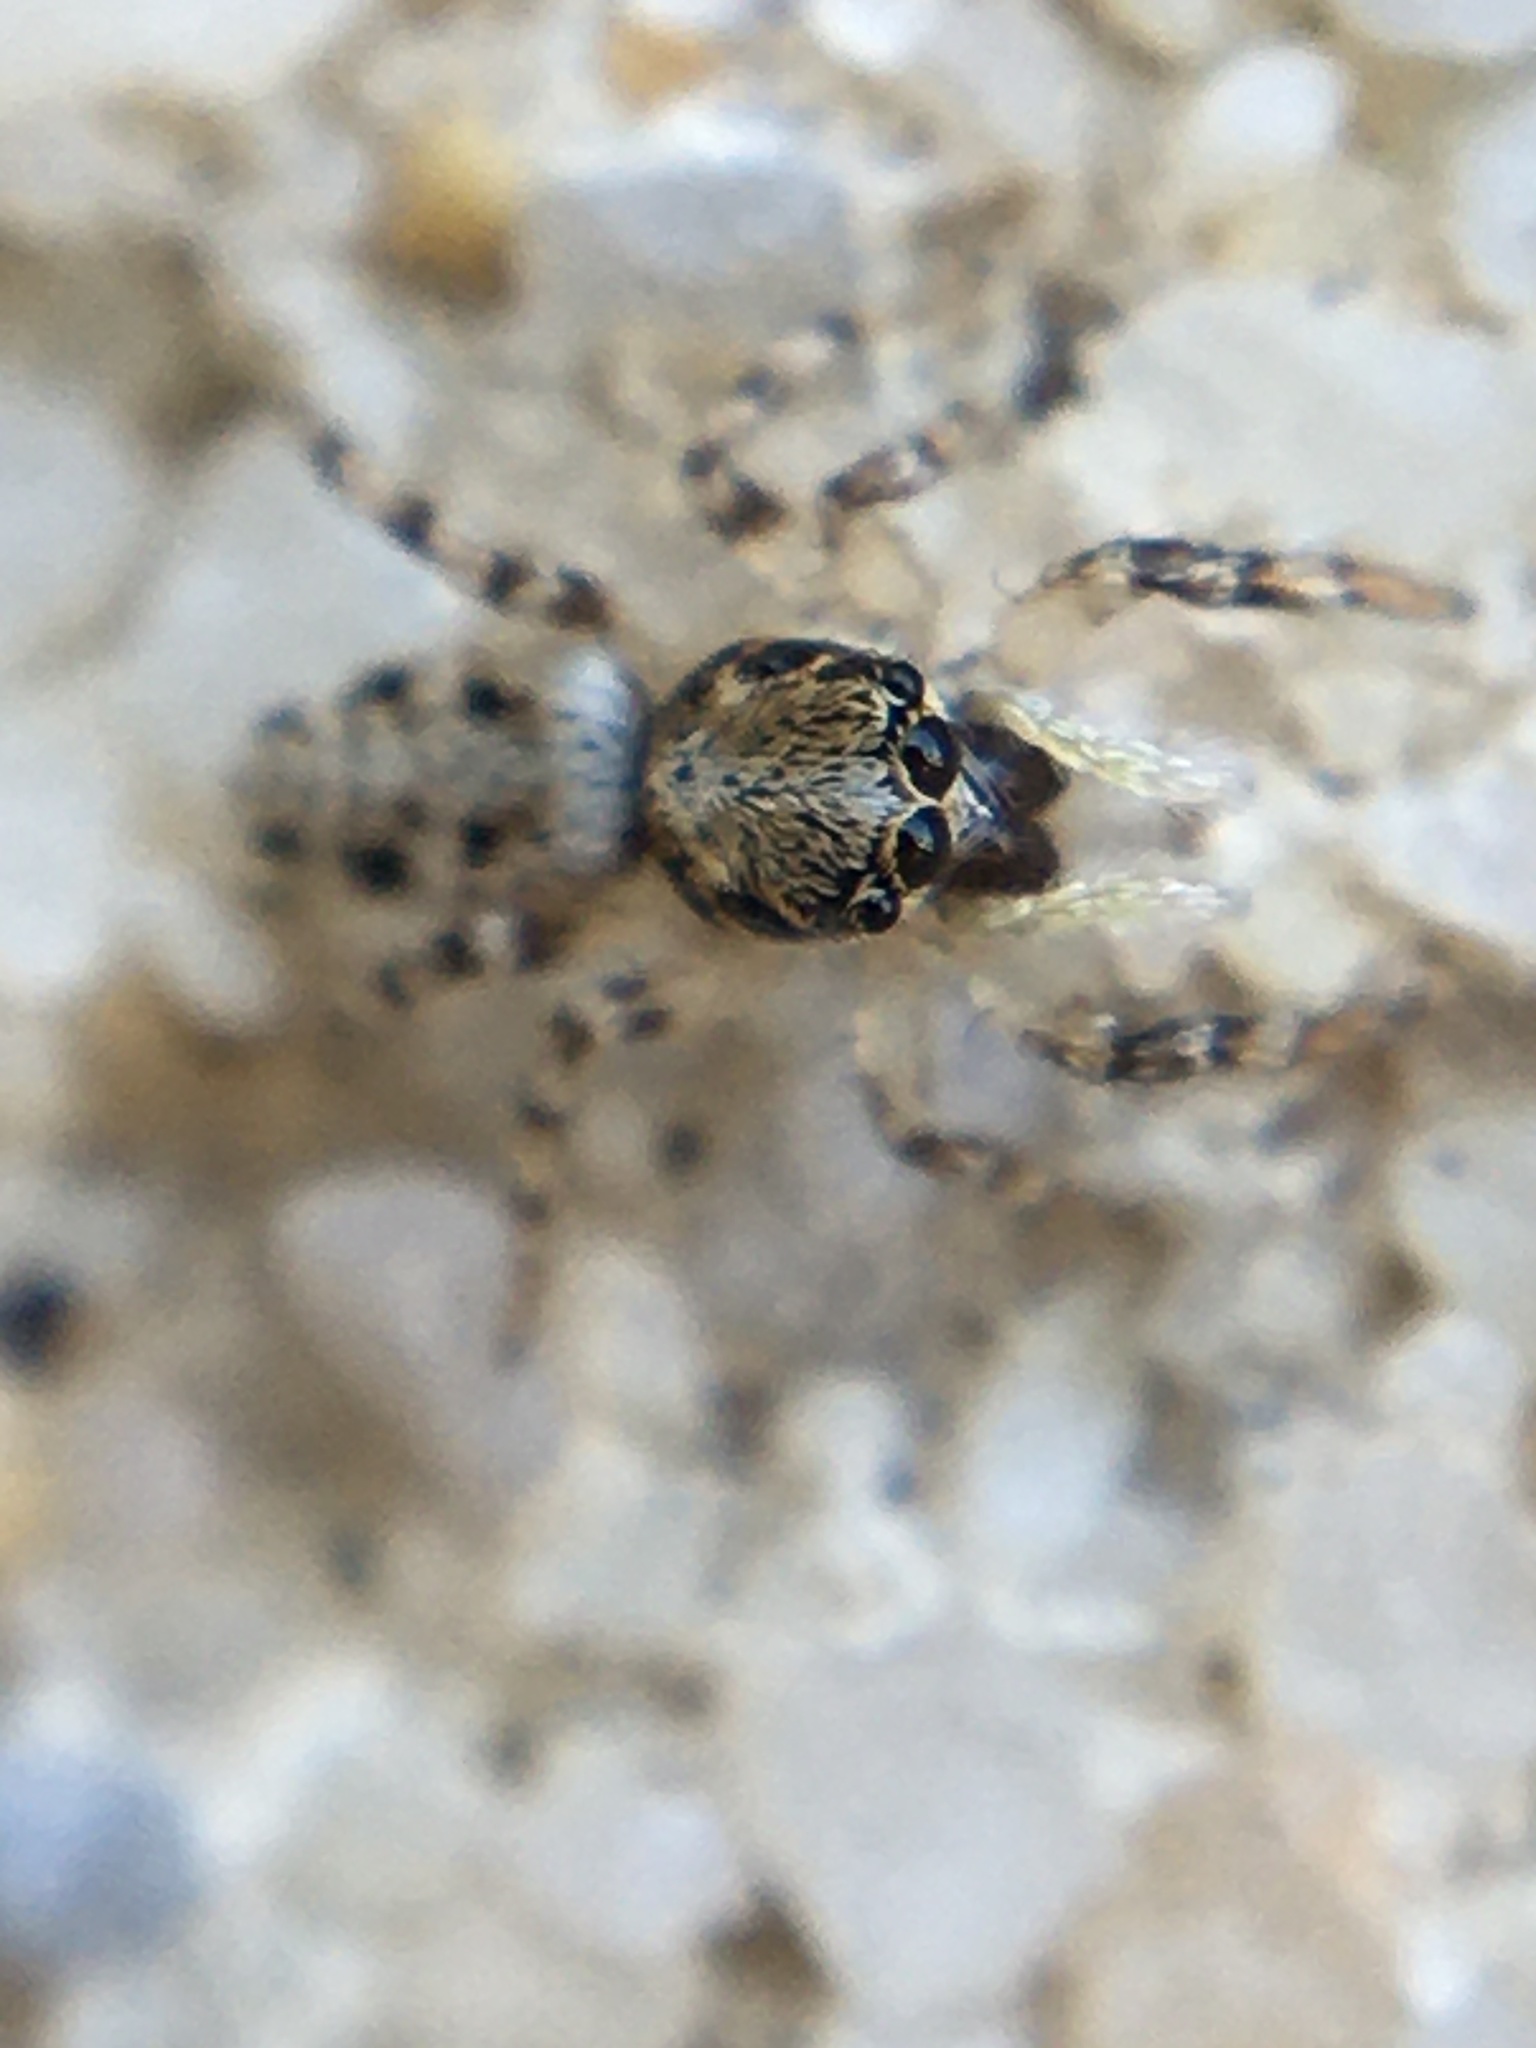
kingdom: Animalia
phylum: Arthropoda
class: Arachnida
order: Araneae
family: Salticidae
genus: Salticus
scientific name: Salticus mutabilis
